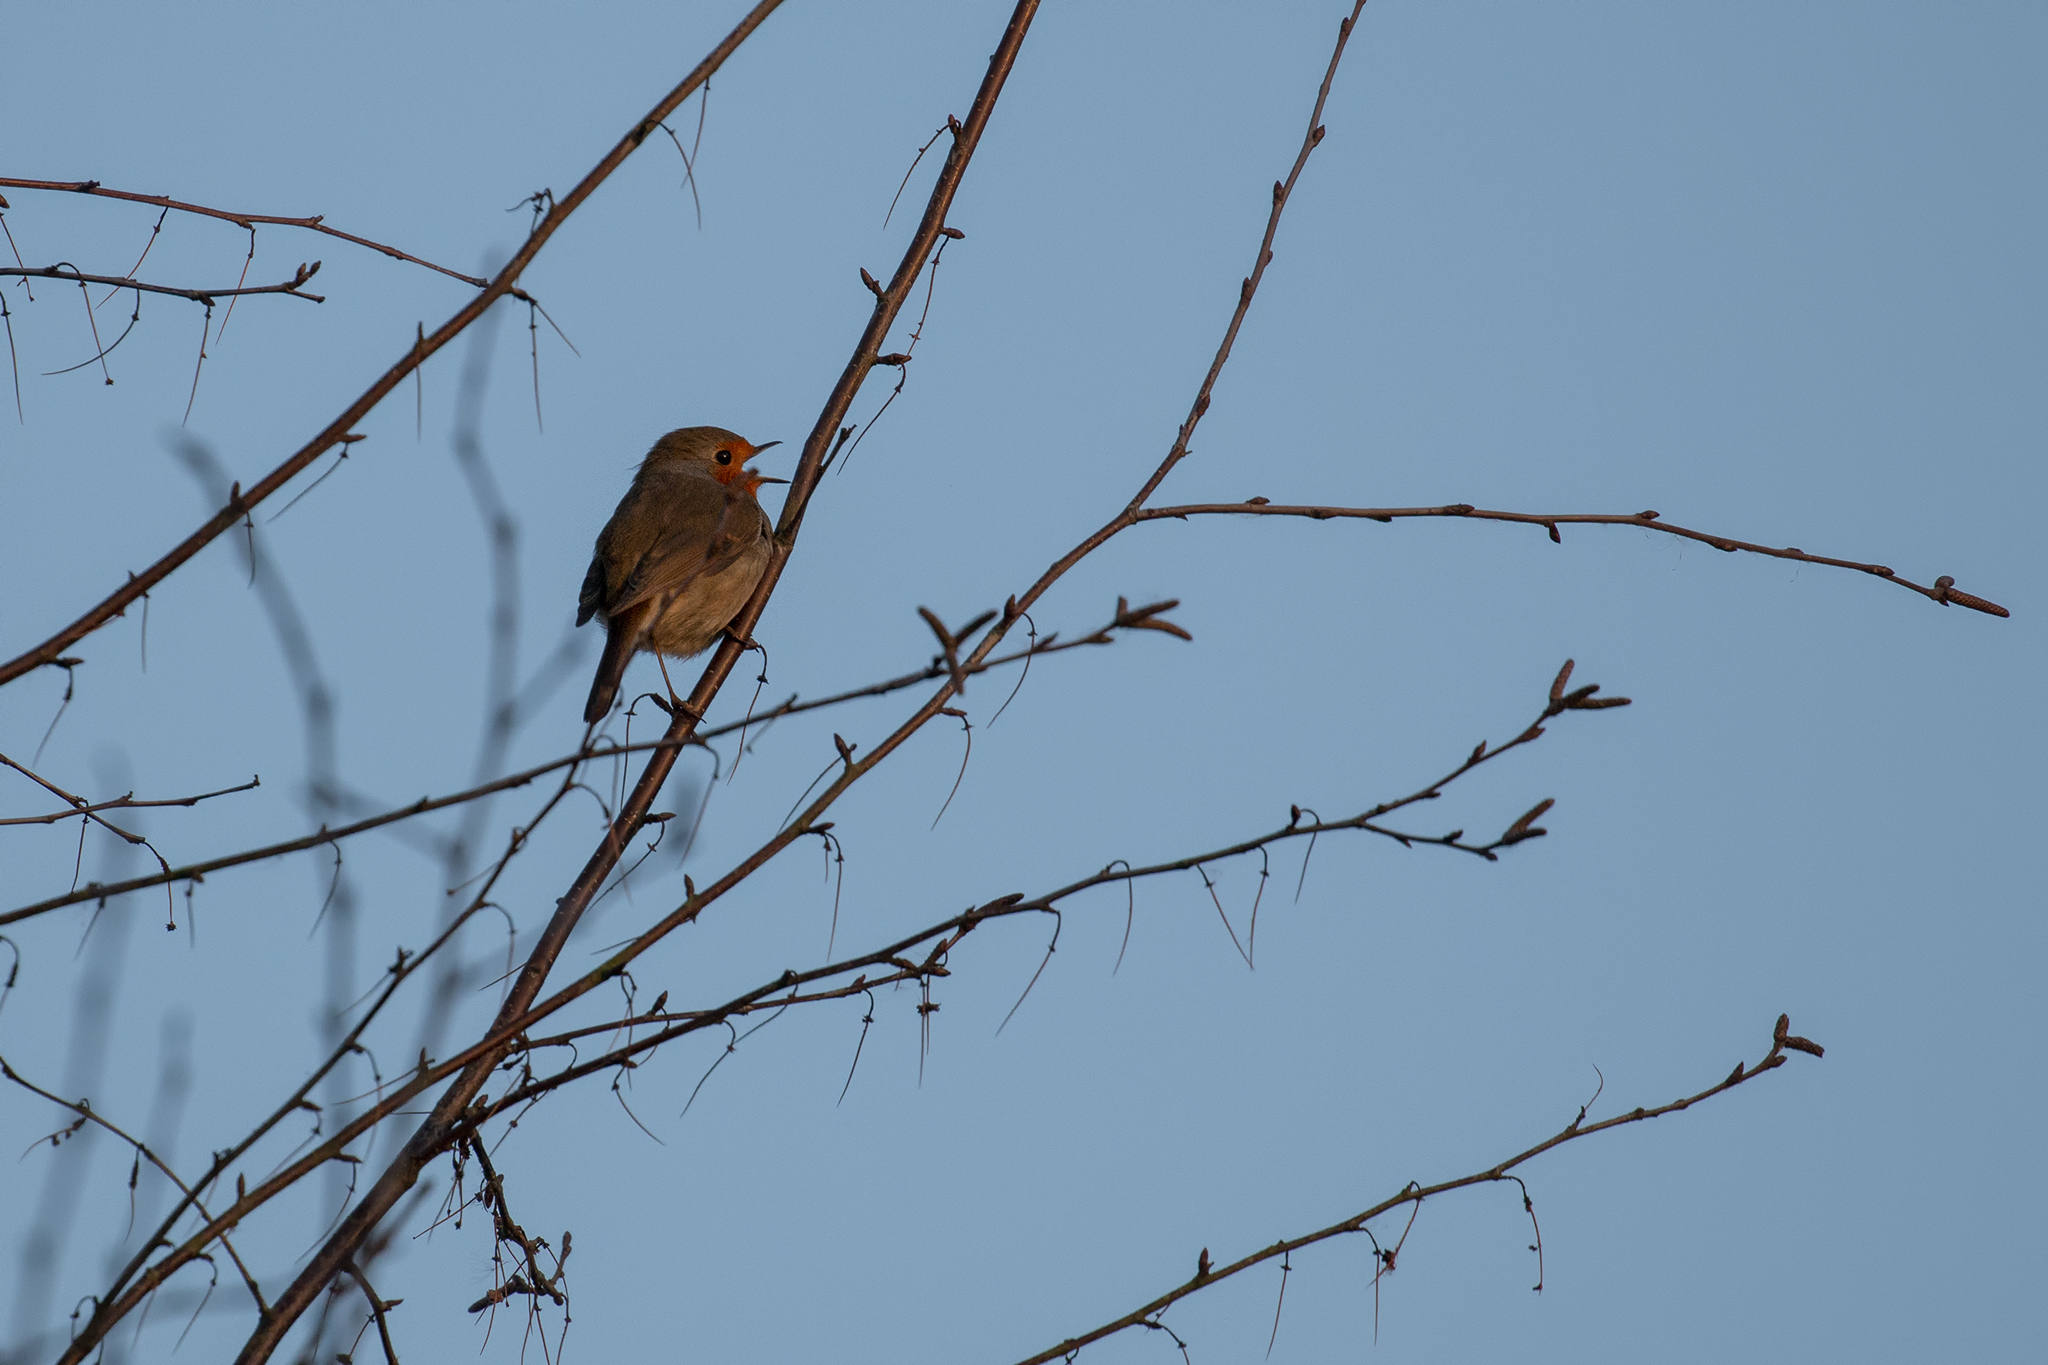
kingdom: Animalia
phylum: Chordata
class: Aves
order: Passeriformes
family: Muscicapidae
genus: Erithacus
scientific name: Erithacus rubecula
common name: European robin
